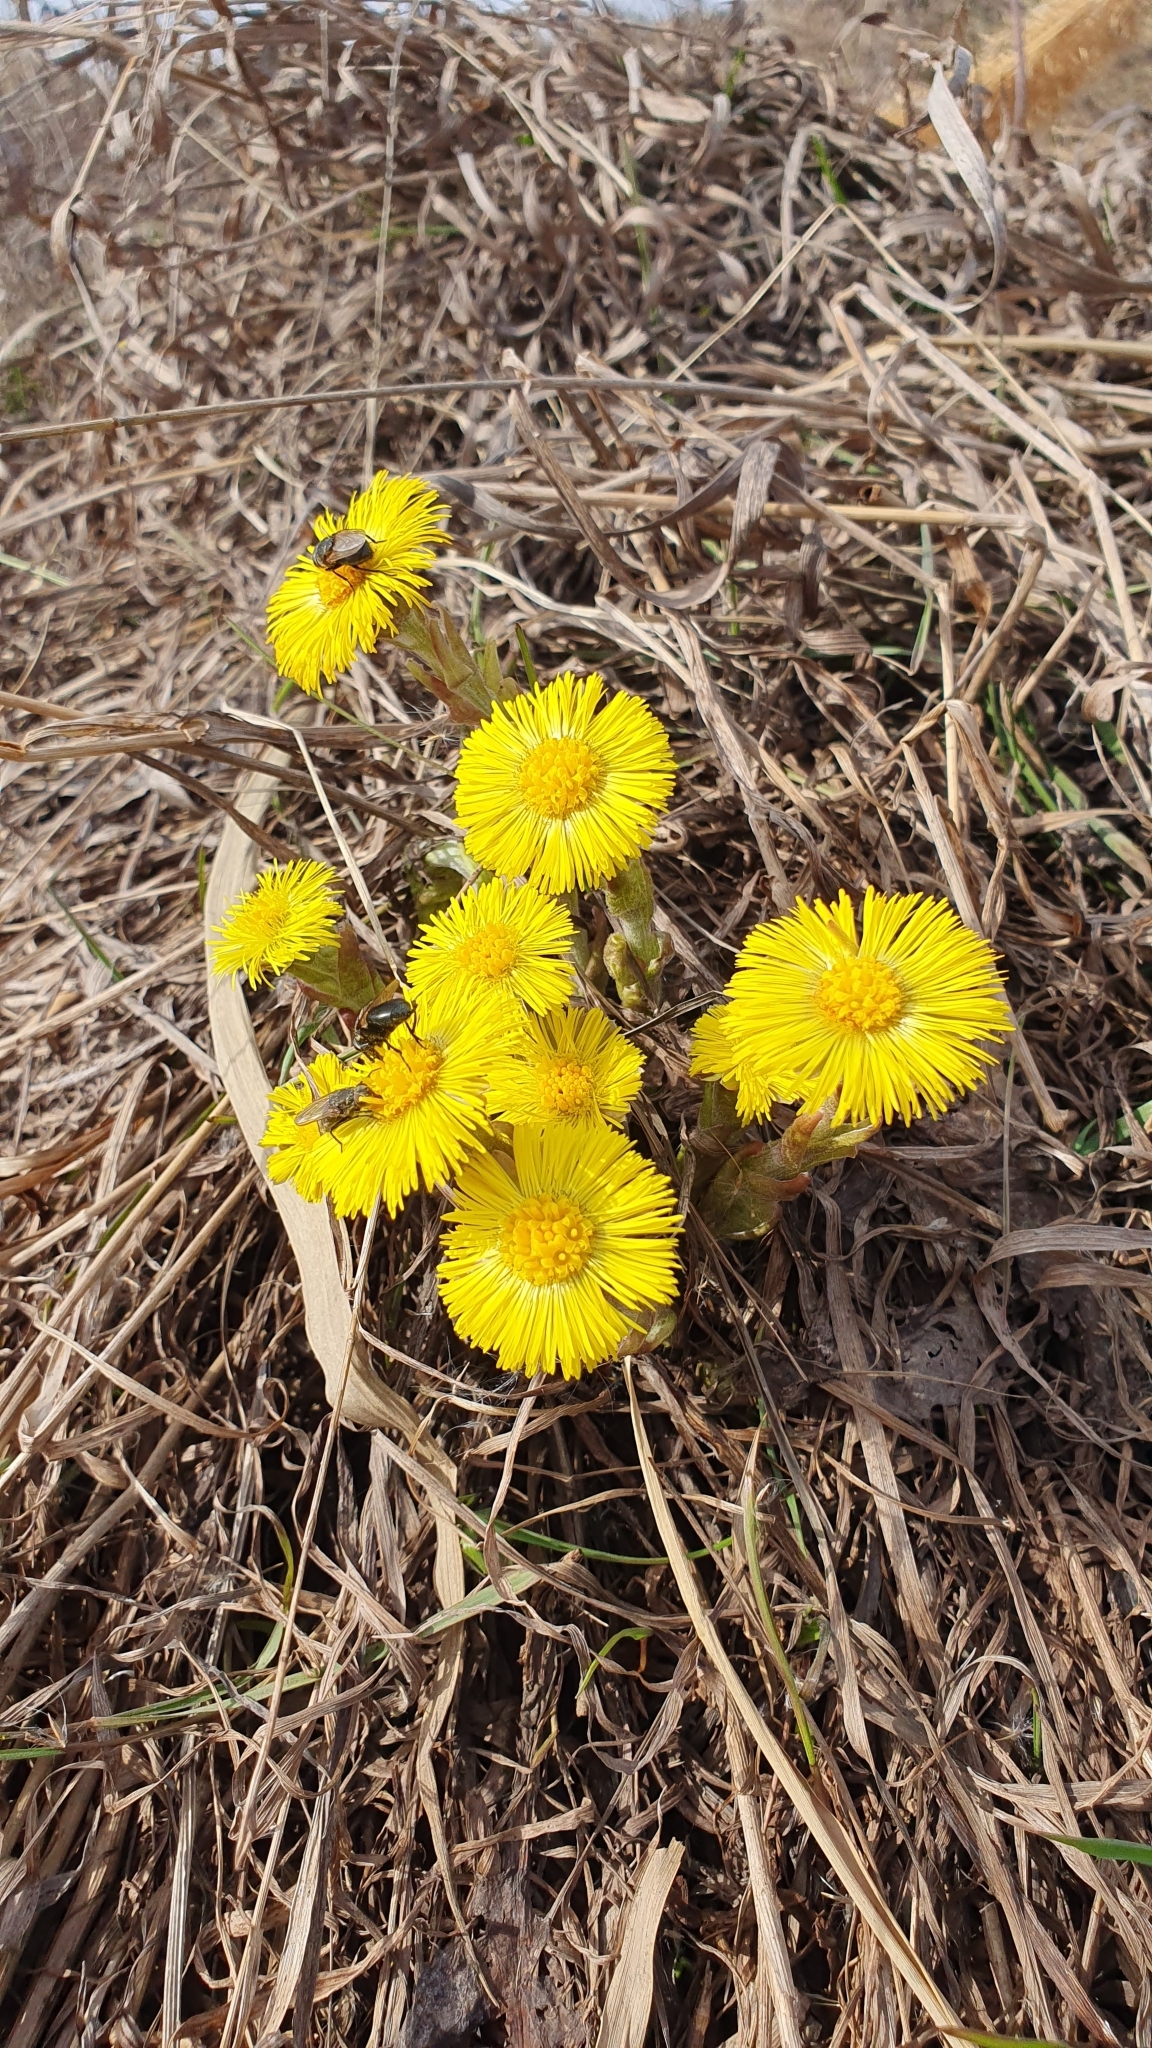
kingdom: Plantae
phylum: Tracheophyta
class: Magnoliopsida
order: Asterales
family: Asteraceae
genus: Tussilago
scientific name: Tussilago farfara
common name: Coltsfoot
